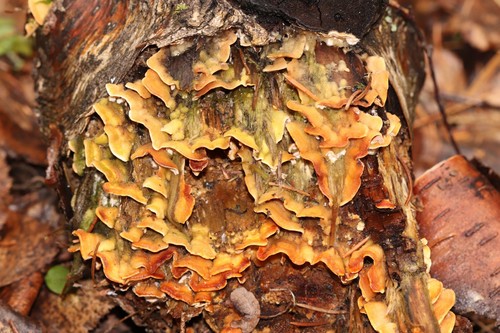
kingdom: Fungi
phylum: Basidiomycota
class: Agaricomycetes
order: Russulales
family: Stereaceae
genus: Stereum
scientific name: Stereum hirsutum
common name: Hairy curtain crust
